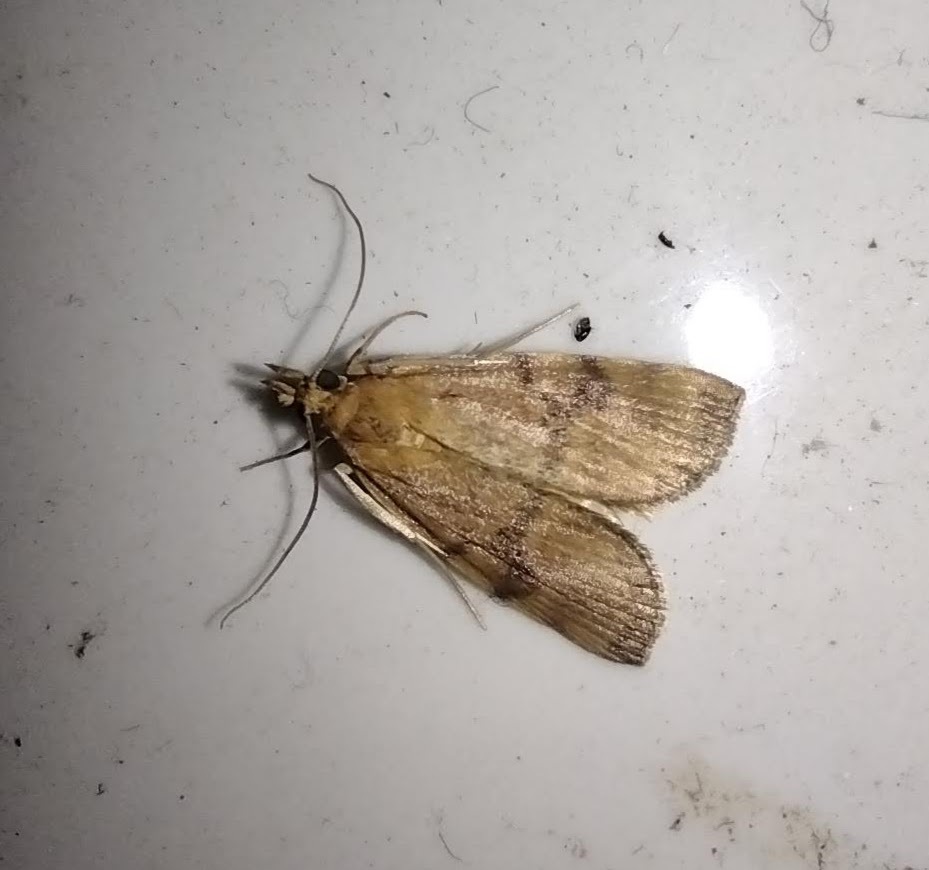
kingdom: Animalia
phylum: Arthropoda
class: Insecta
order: Lepidoptera
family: Crambidae
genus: Orthomecyna
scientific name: Orthomecyna chrysophanes
